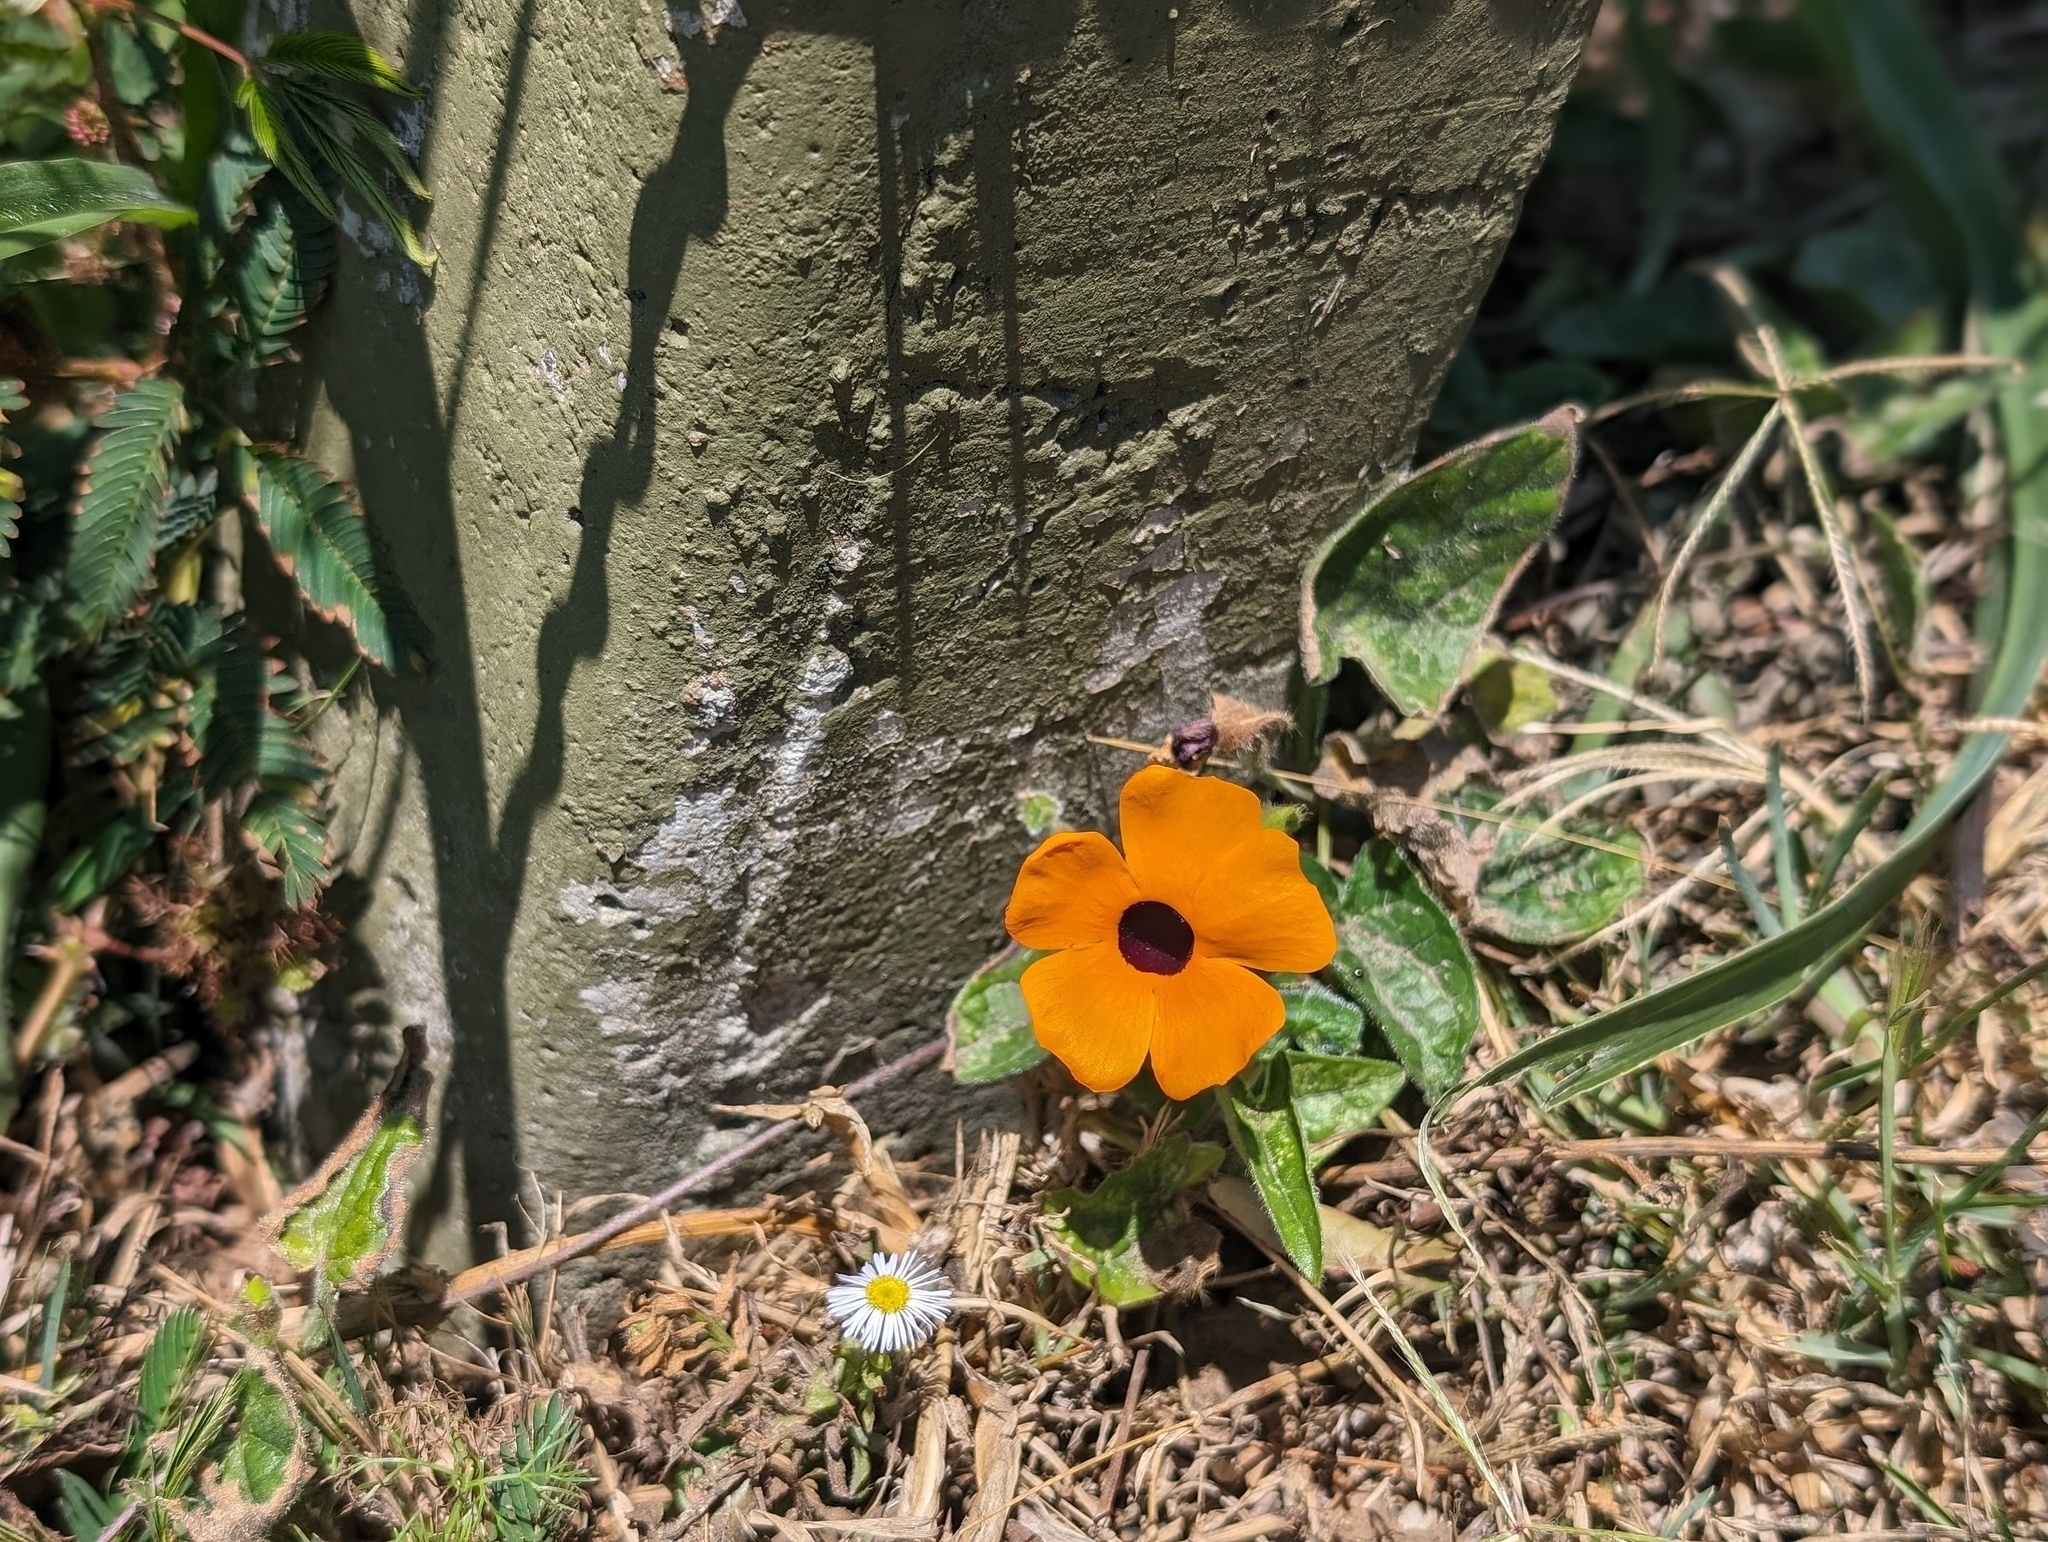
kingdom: Plantae
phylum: Tracheophyta
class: Magnoliopsida
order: Lamiales
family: Acanthaceae
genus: Thunbergia
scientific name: Thunbergia alata
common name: Blackeyed susan vine
